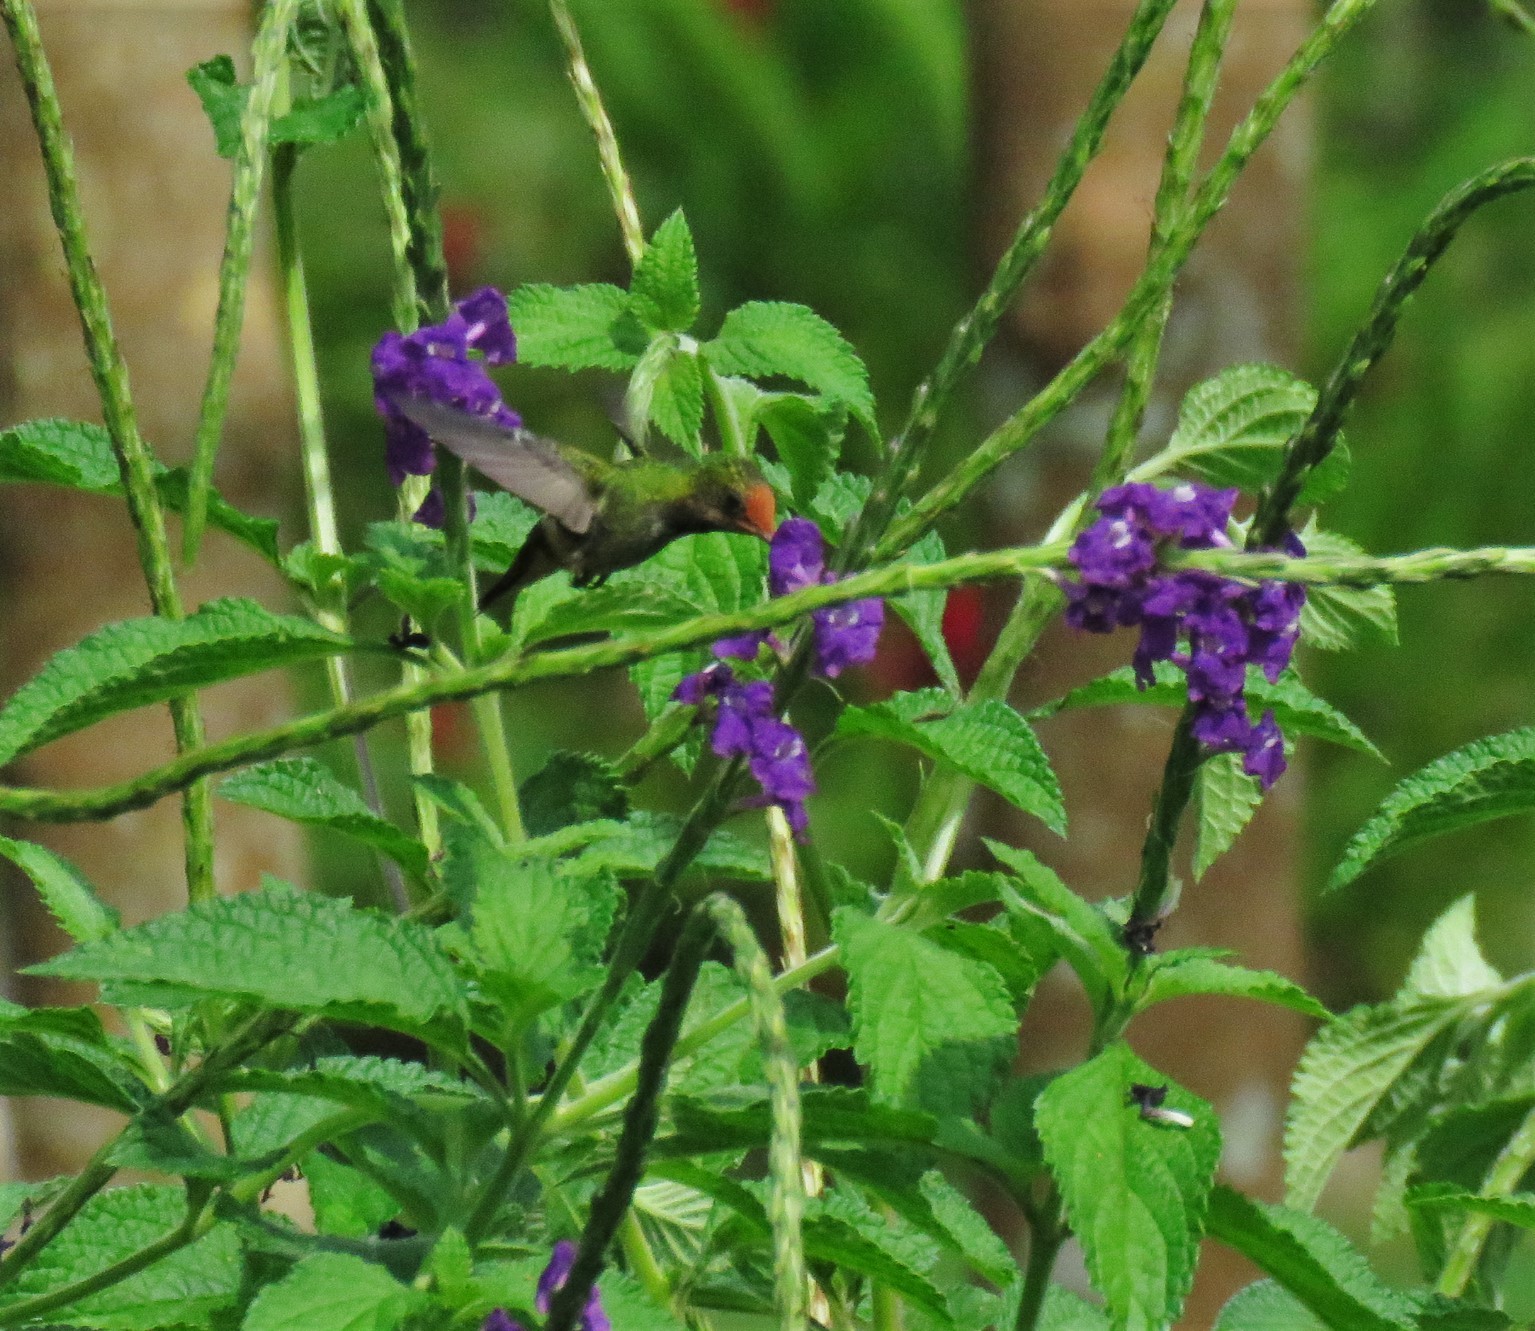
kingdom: Animalia
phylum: Chordata
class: Aves
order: Apodiformes
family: Trochilidae
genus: Lophornis
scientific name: Lophornis delattrei
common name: Rufous-crested coquette
